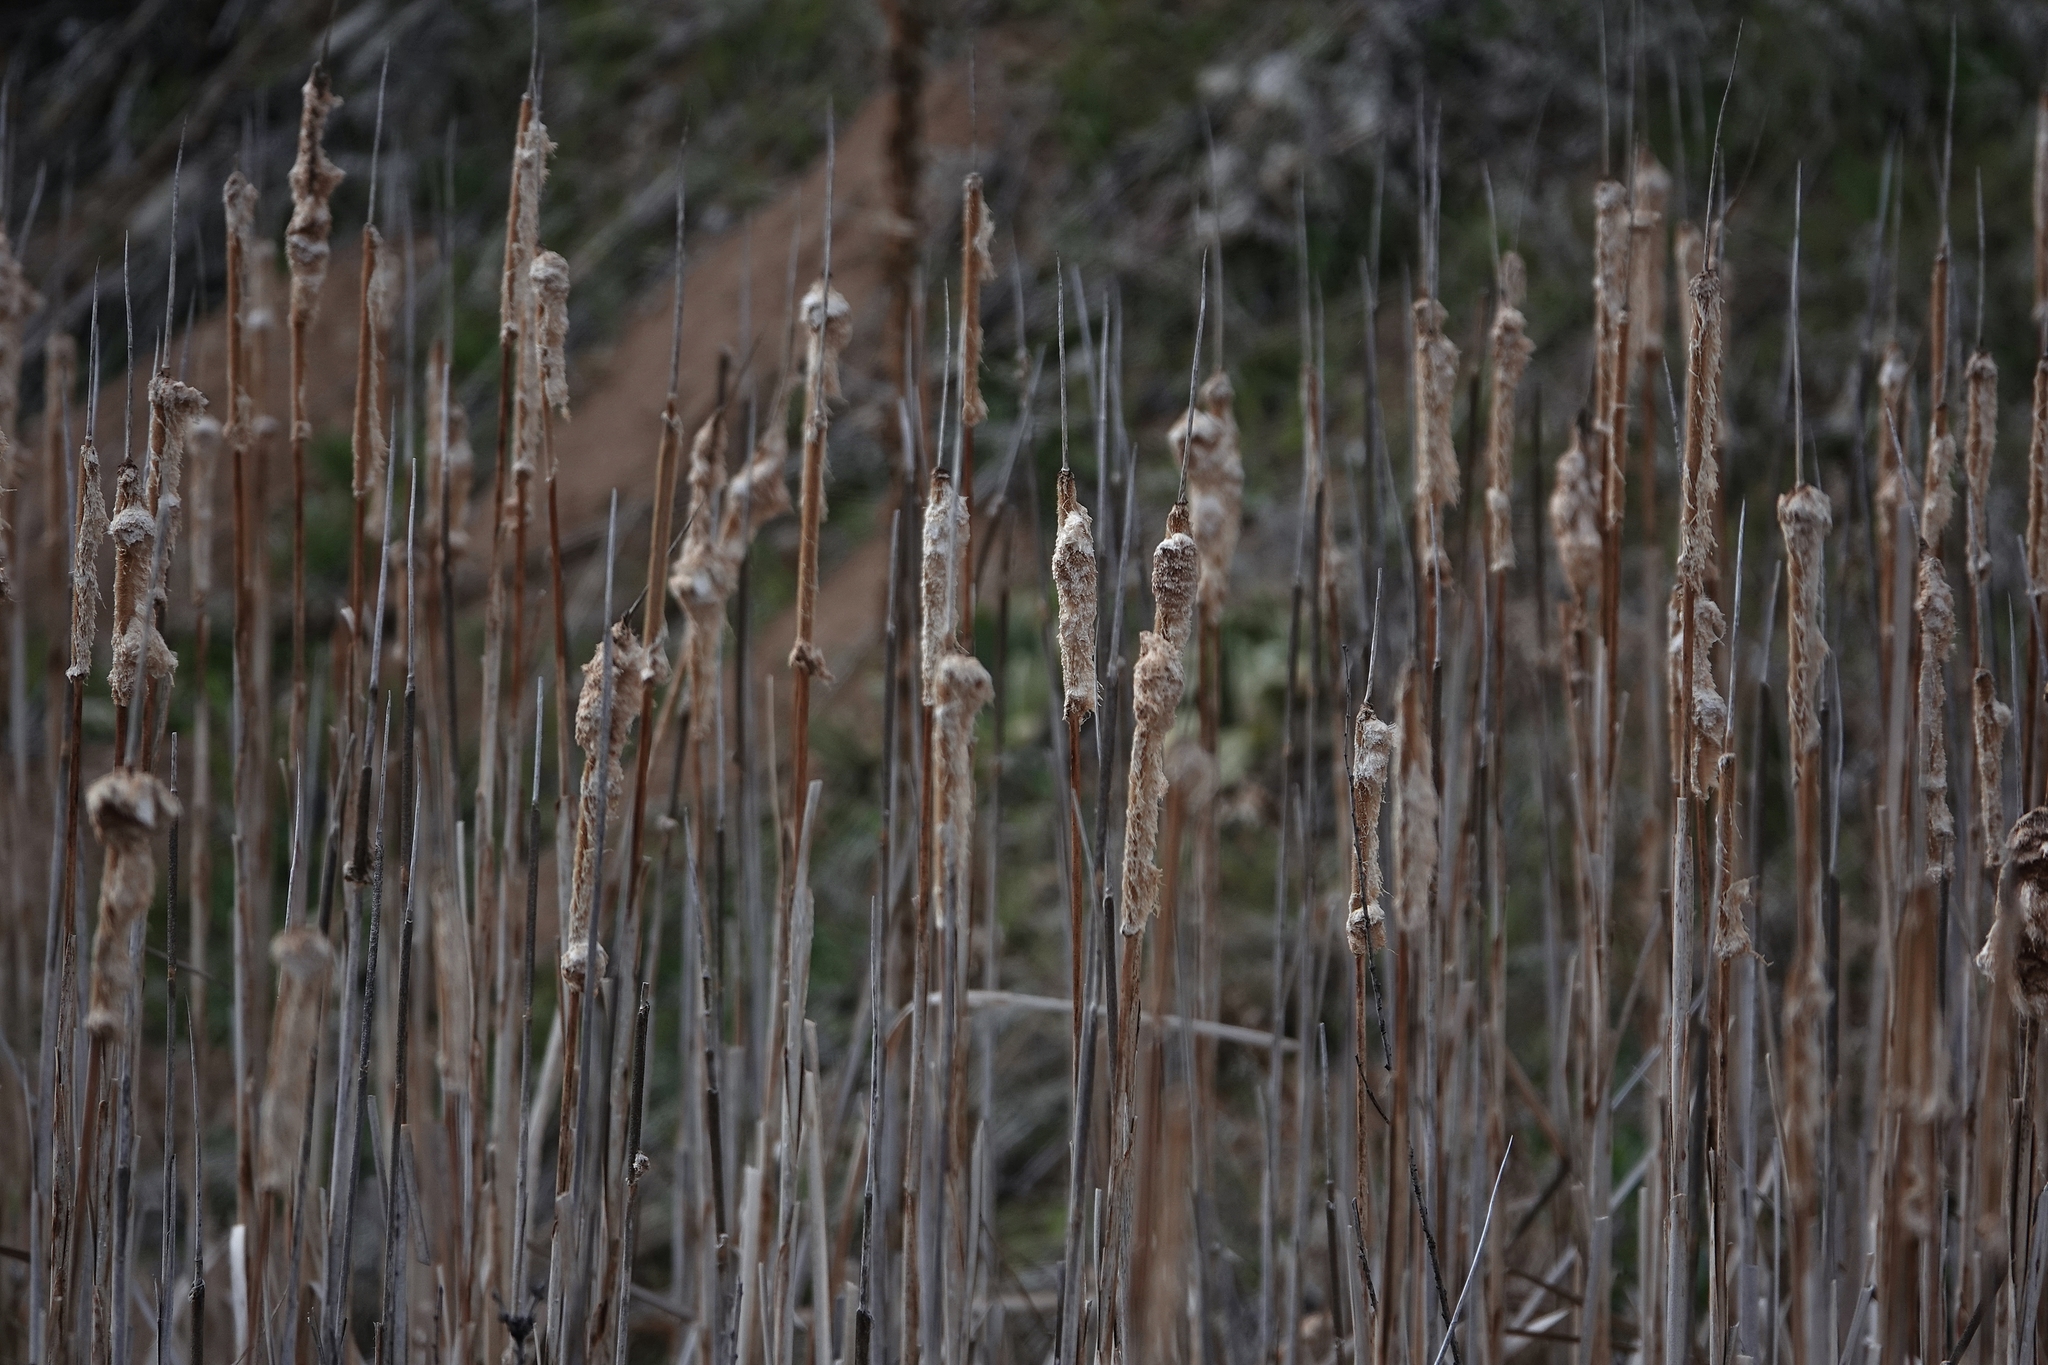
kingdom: Plantae
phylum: Tracheophyta
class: Liliopsida
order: Poales
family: Typhaceae
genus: Typha
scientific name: Typha latifolia
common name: Broadleaf cattail
